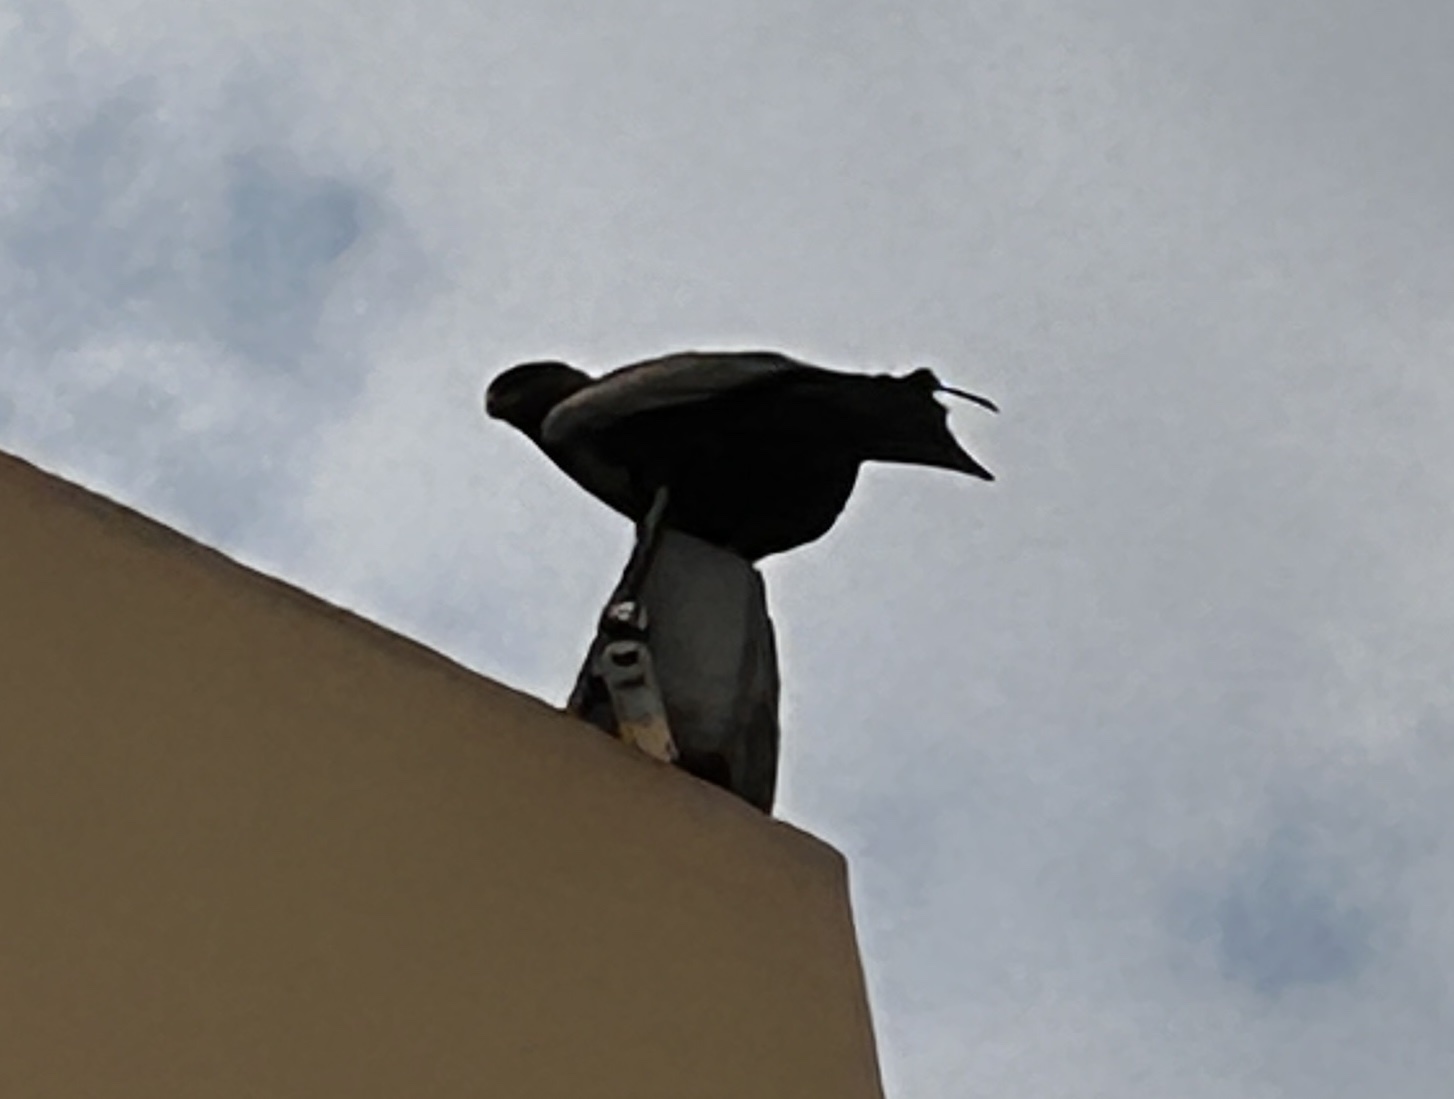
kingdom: Animalia
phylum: Chordata
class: Aves
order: Accipitriformes
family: Accipitridae
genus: Milvus
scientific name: Milvus migrans
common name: Black kite
